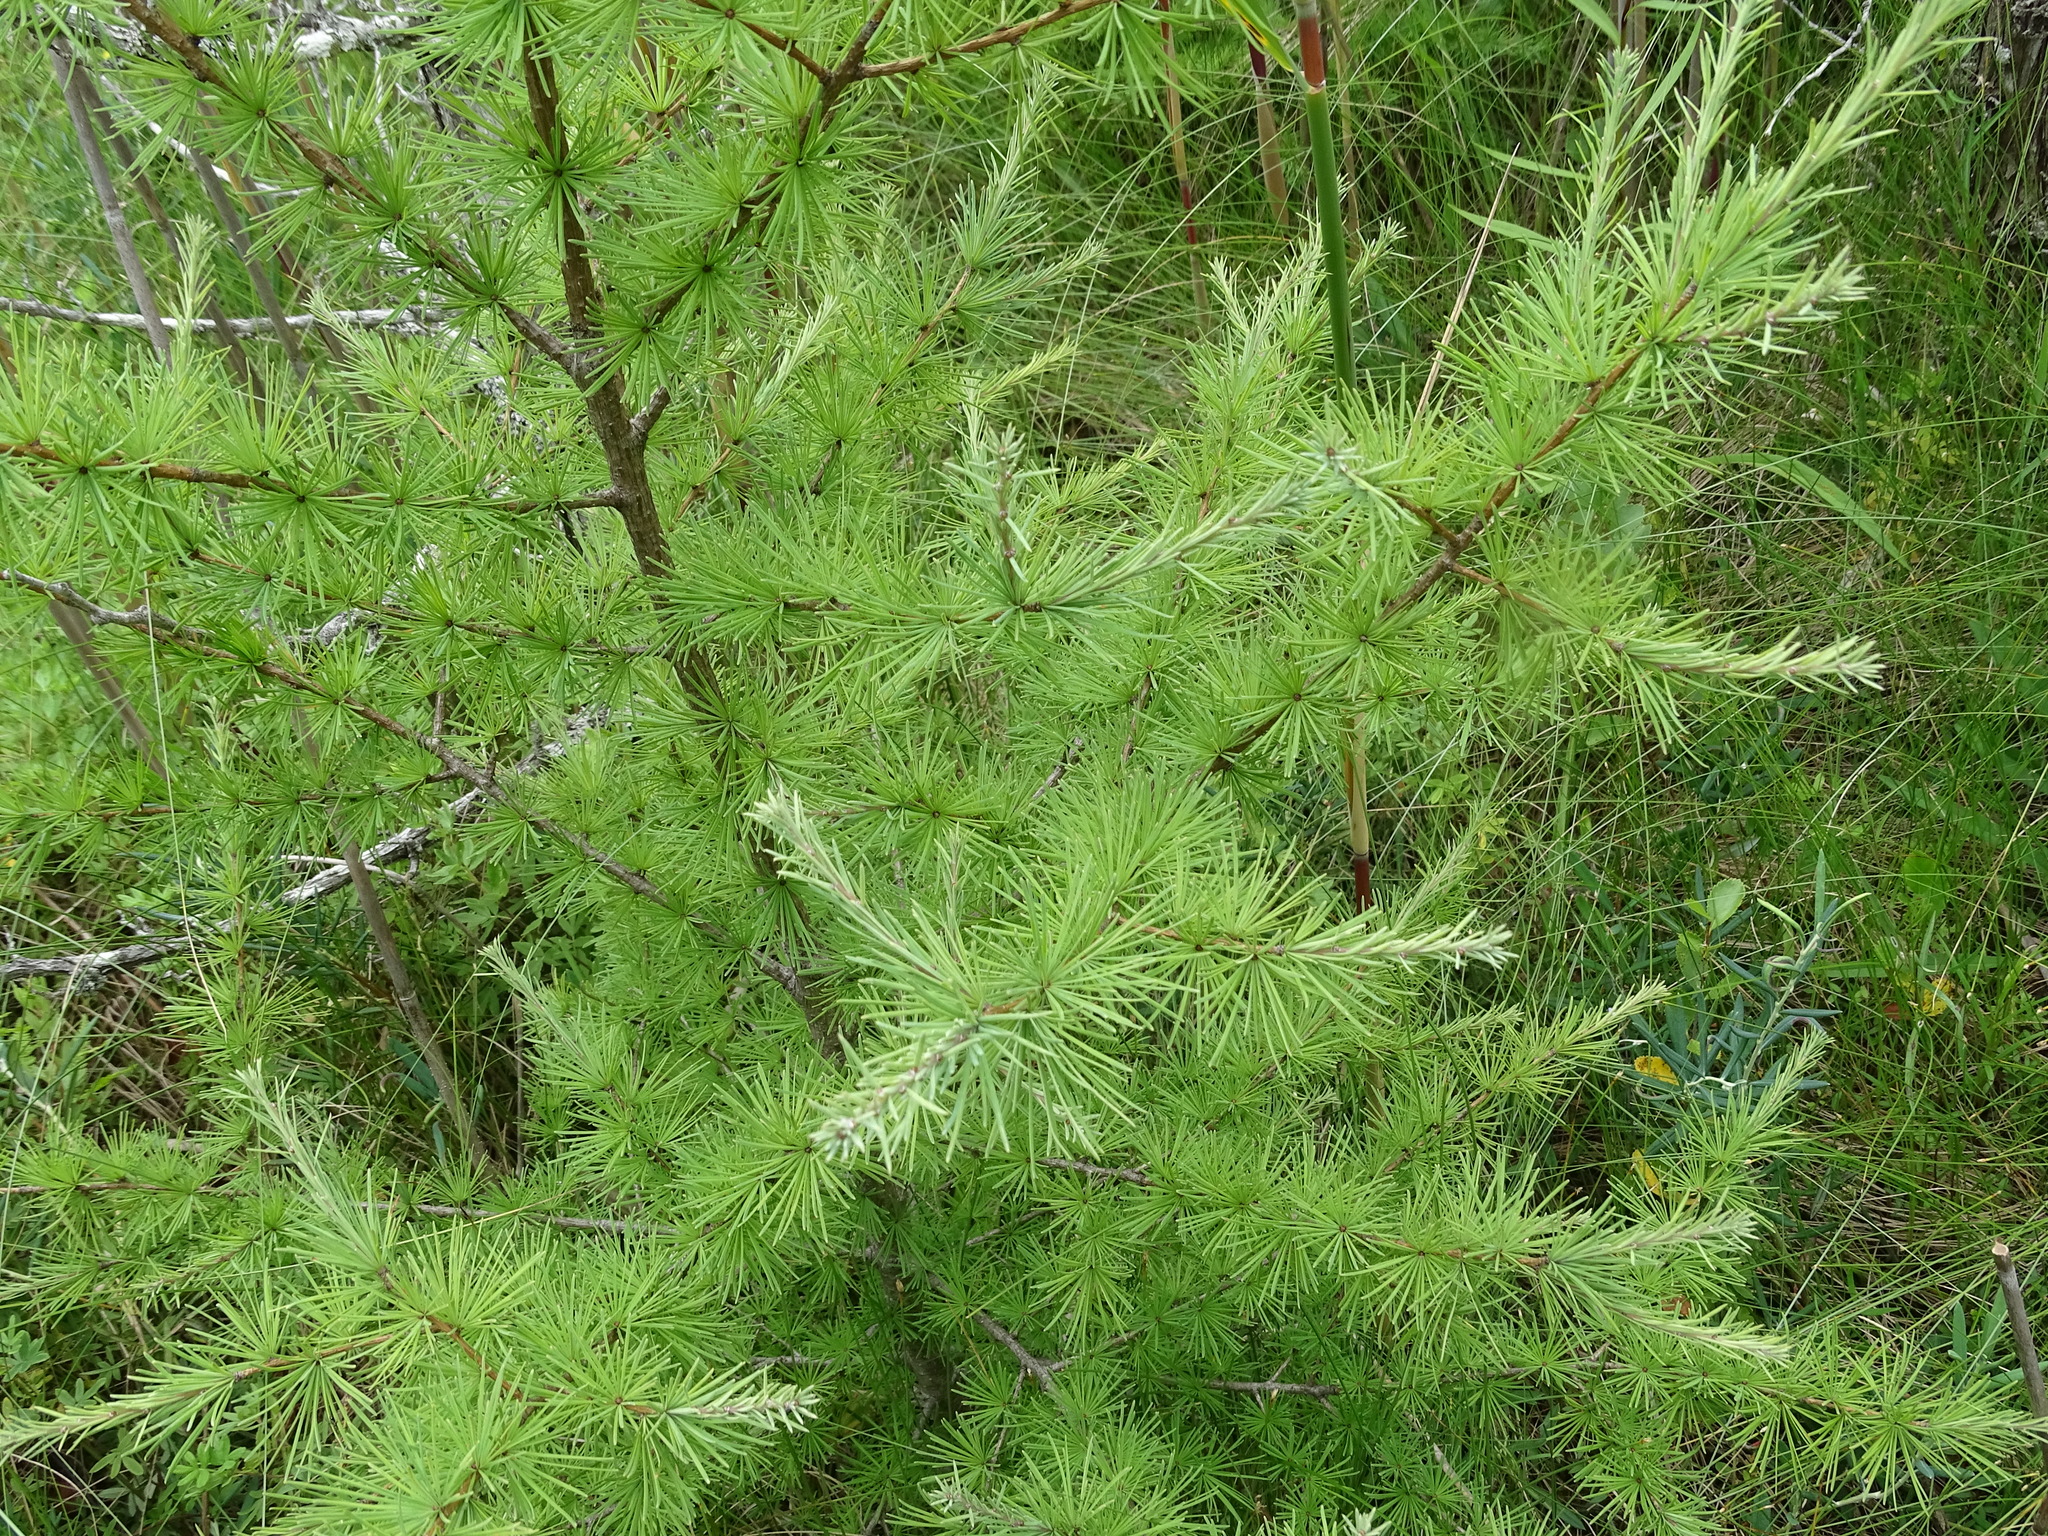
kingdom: Plantae
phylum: Tracheophyta
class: Pinopsida
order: Pinales
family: Pinaceae
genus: Larix
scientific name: Larix laricina
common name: American larch
